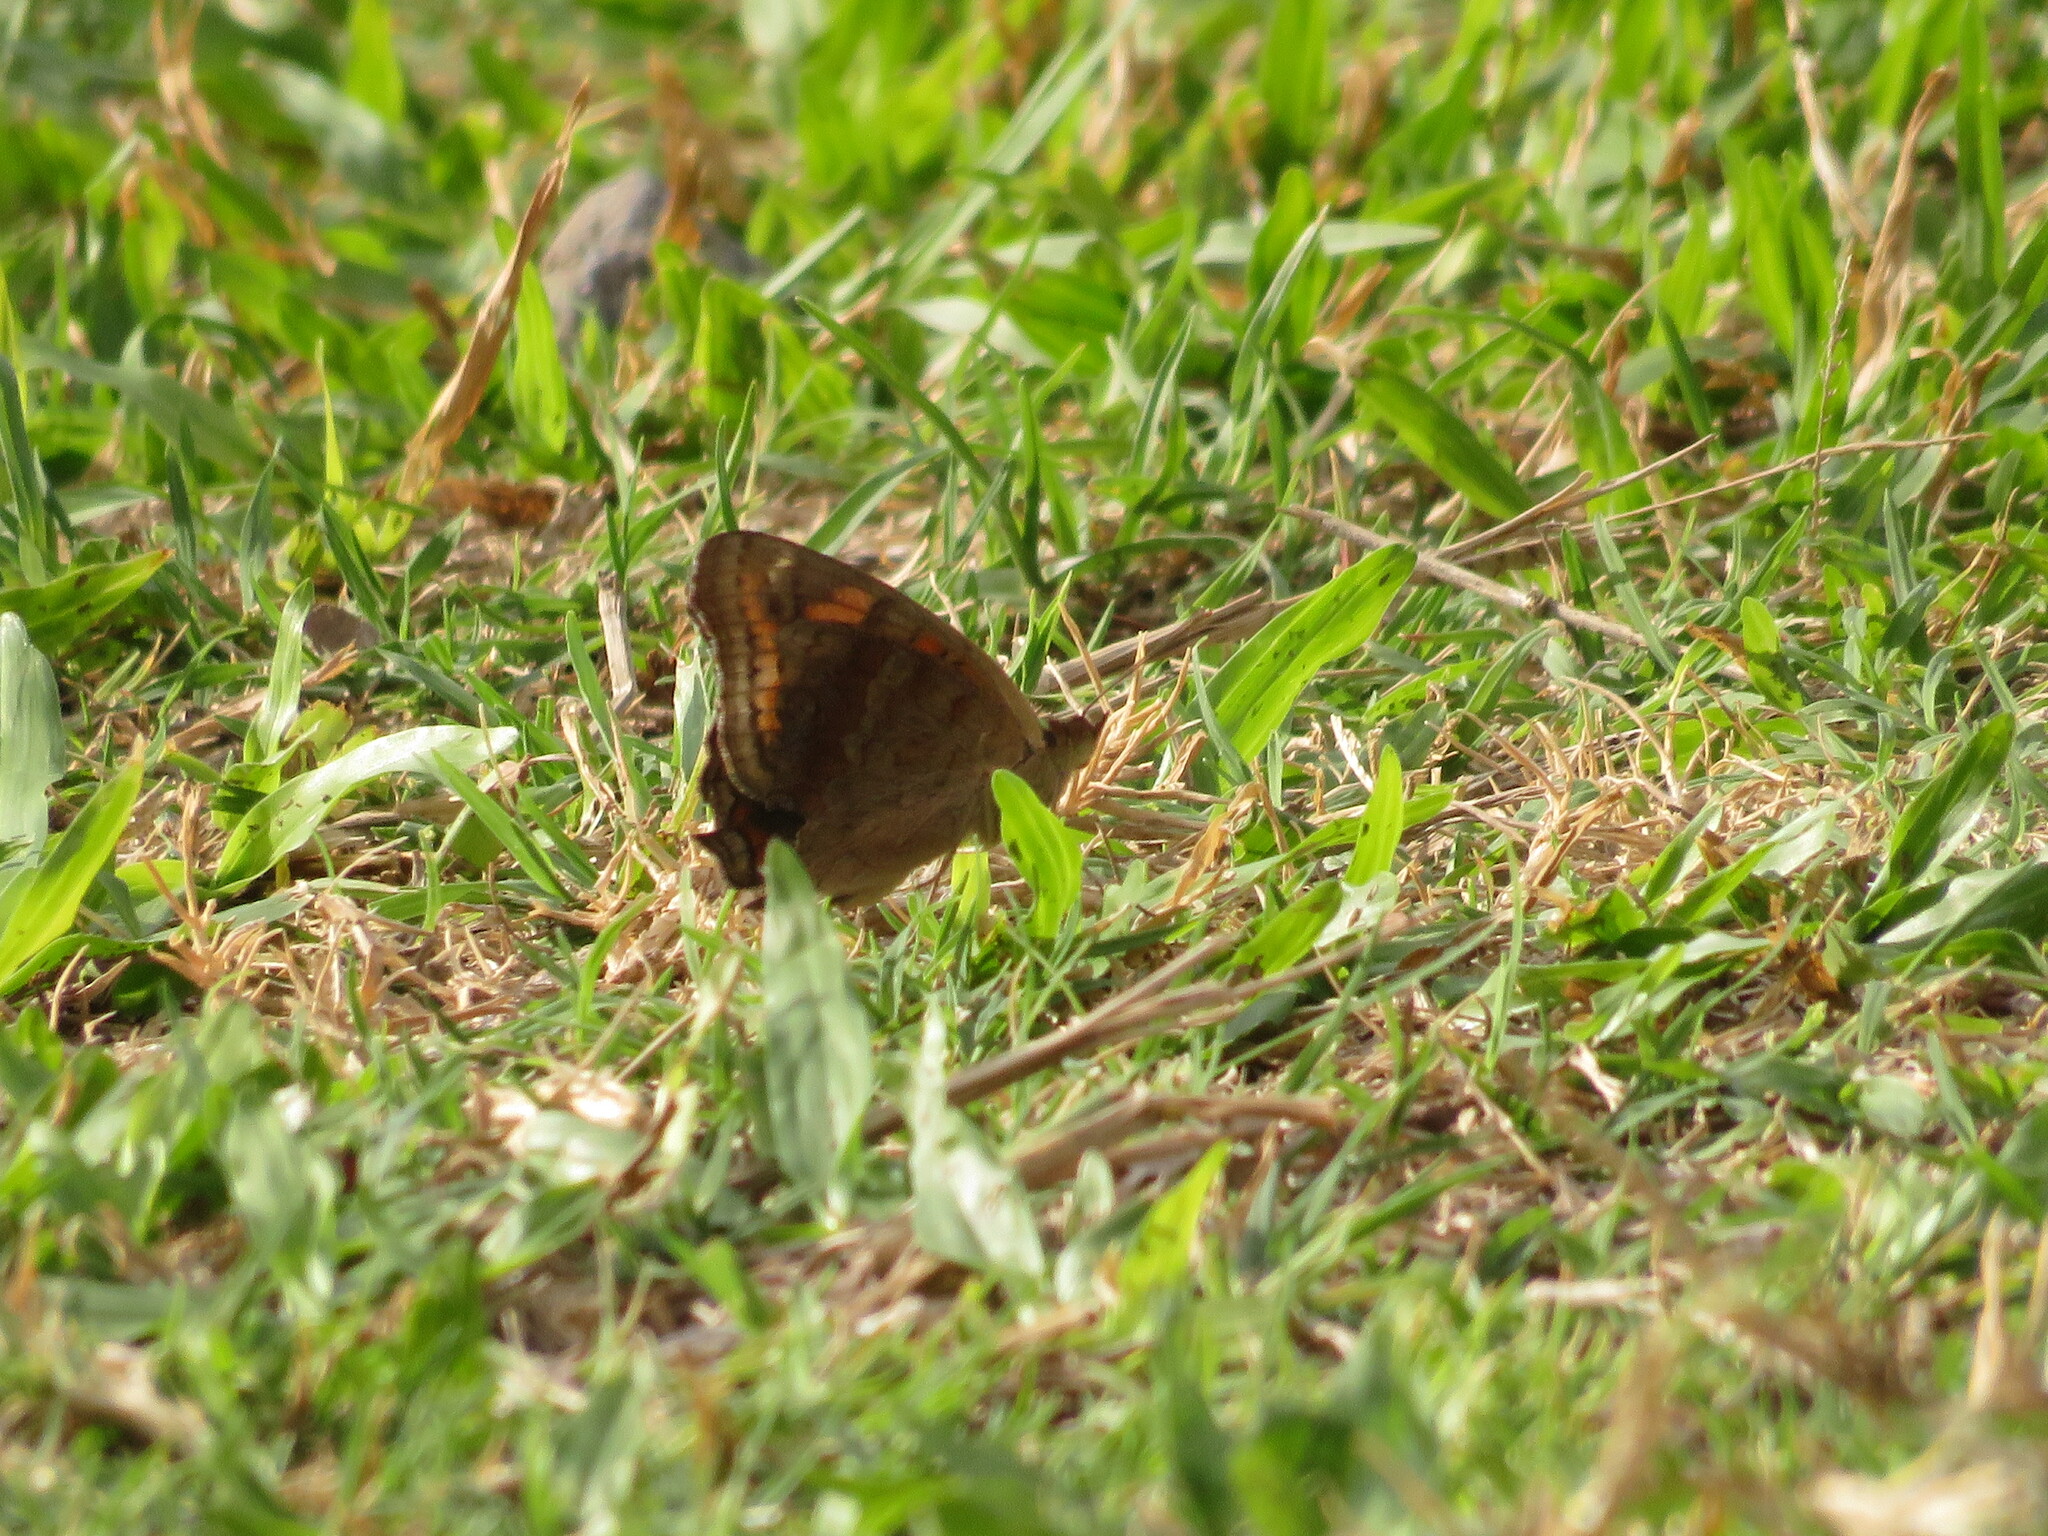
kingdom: Animalia
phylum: Arthropoda
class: Insecta
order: Lepidoptera
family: Nymphalidae
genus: Junonia
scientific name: Junonia lavinia
